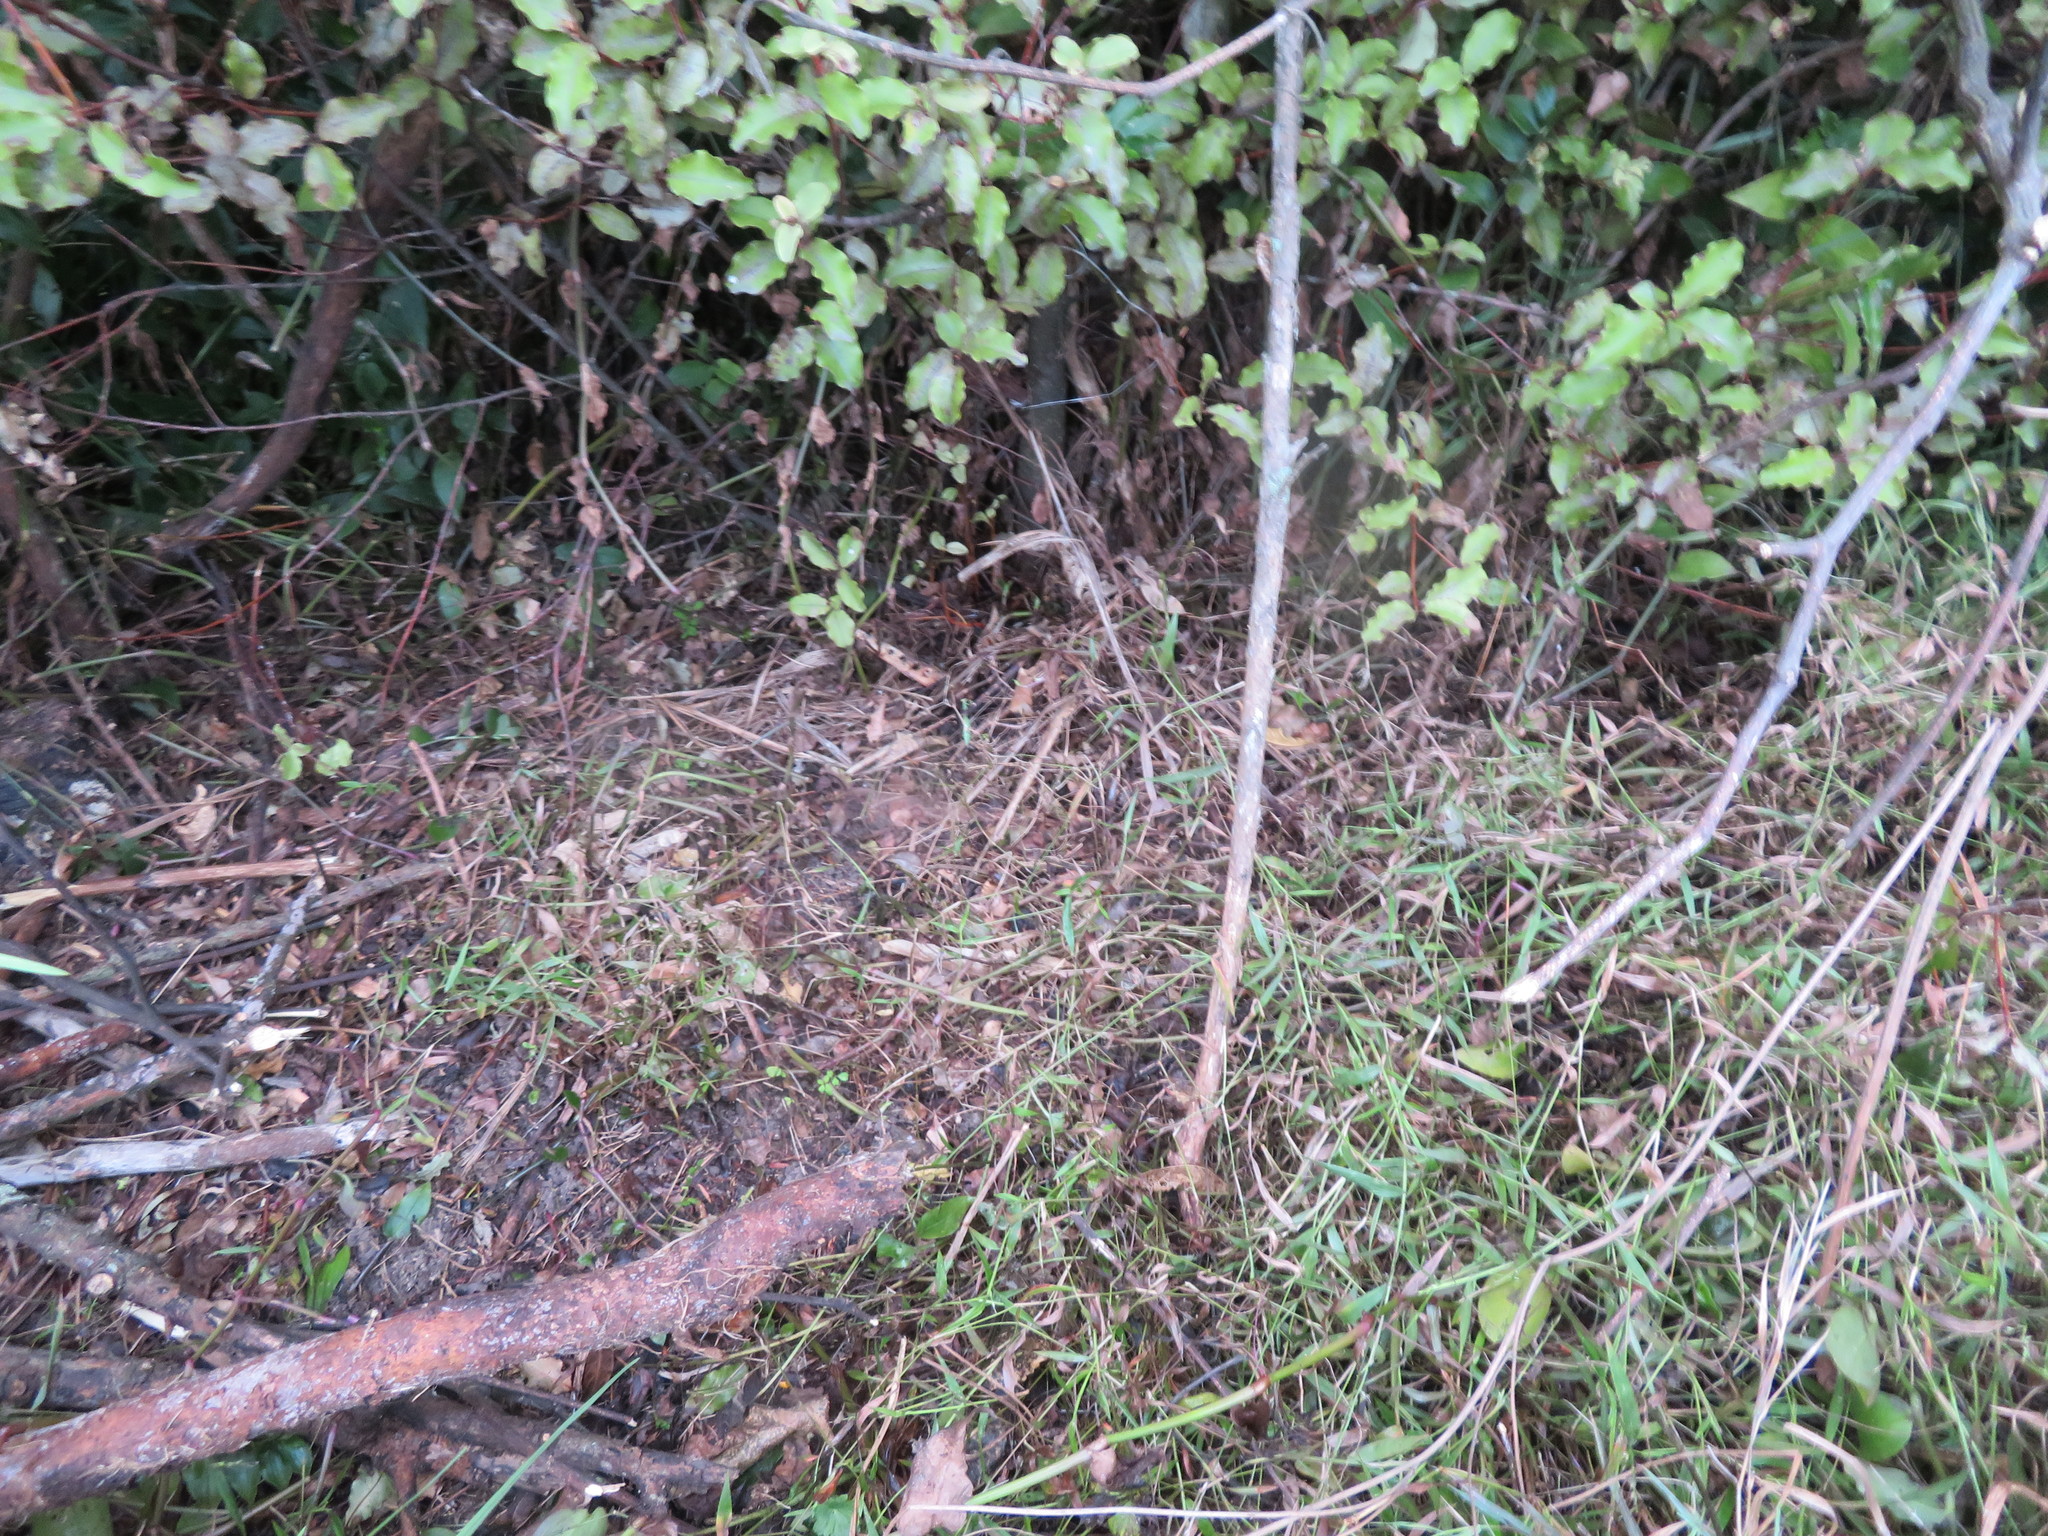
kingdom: Animalia
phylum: Arthropoda
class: Insecta
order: Mantodea
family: Miomantidae
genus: Miomantis
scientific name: Miomantis caffra
